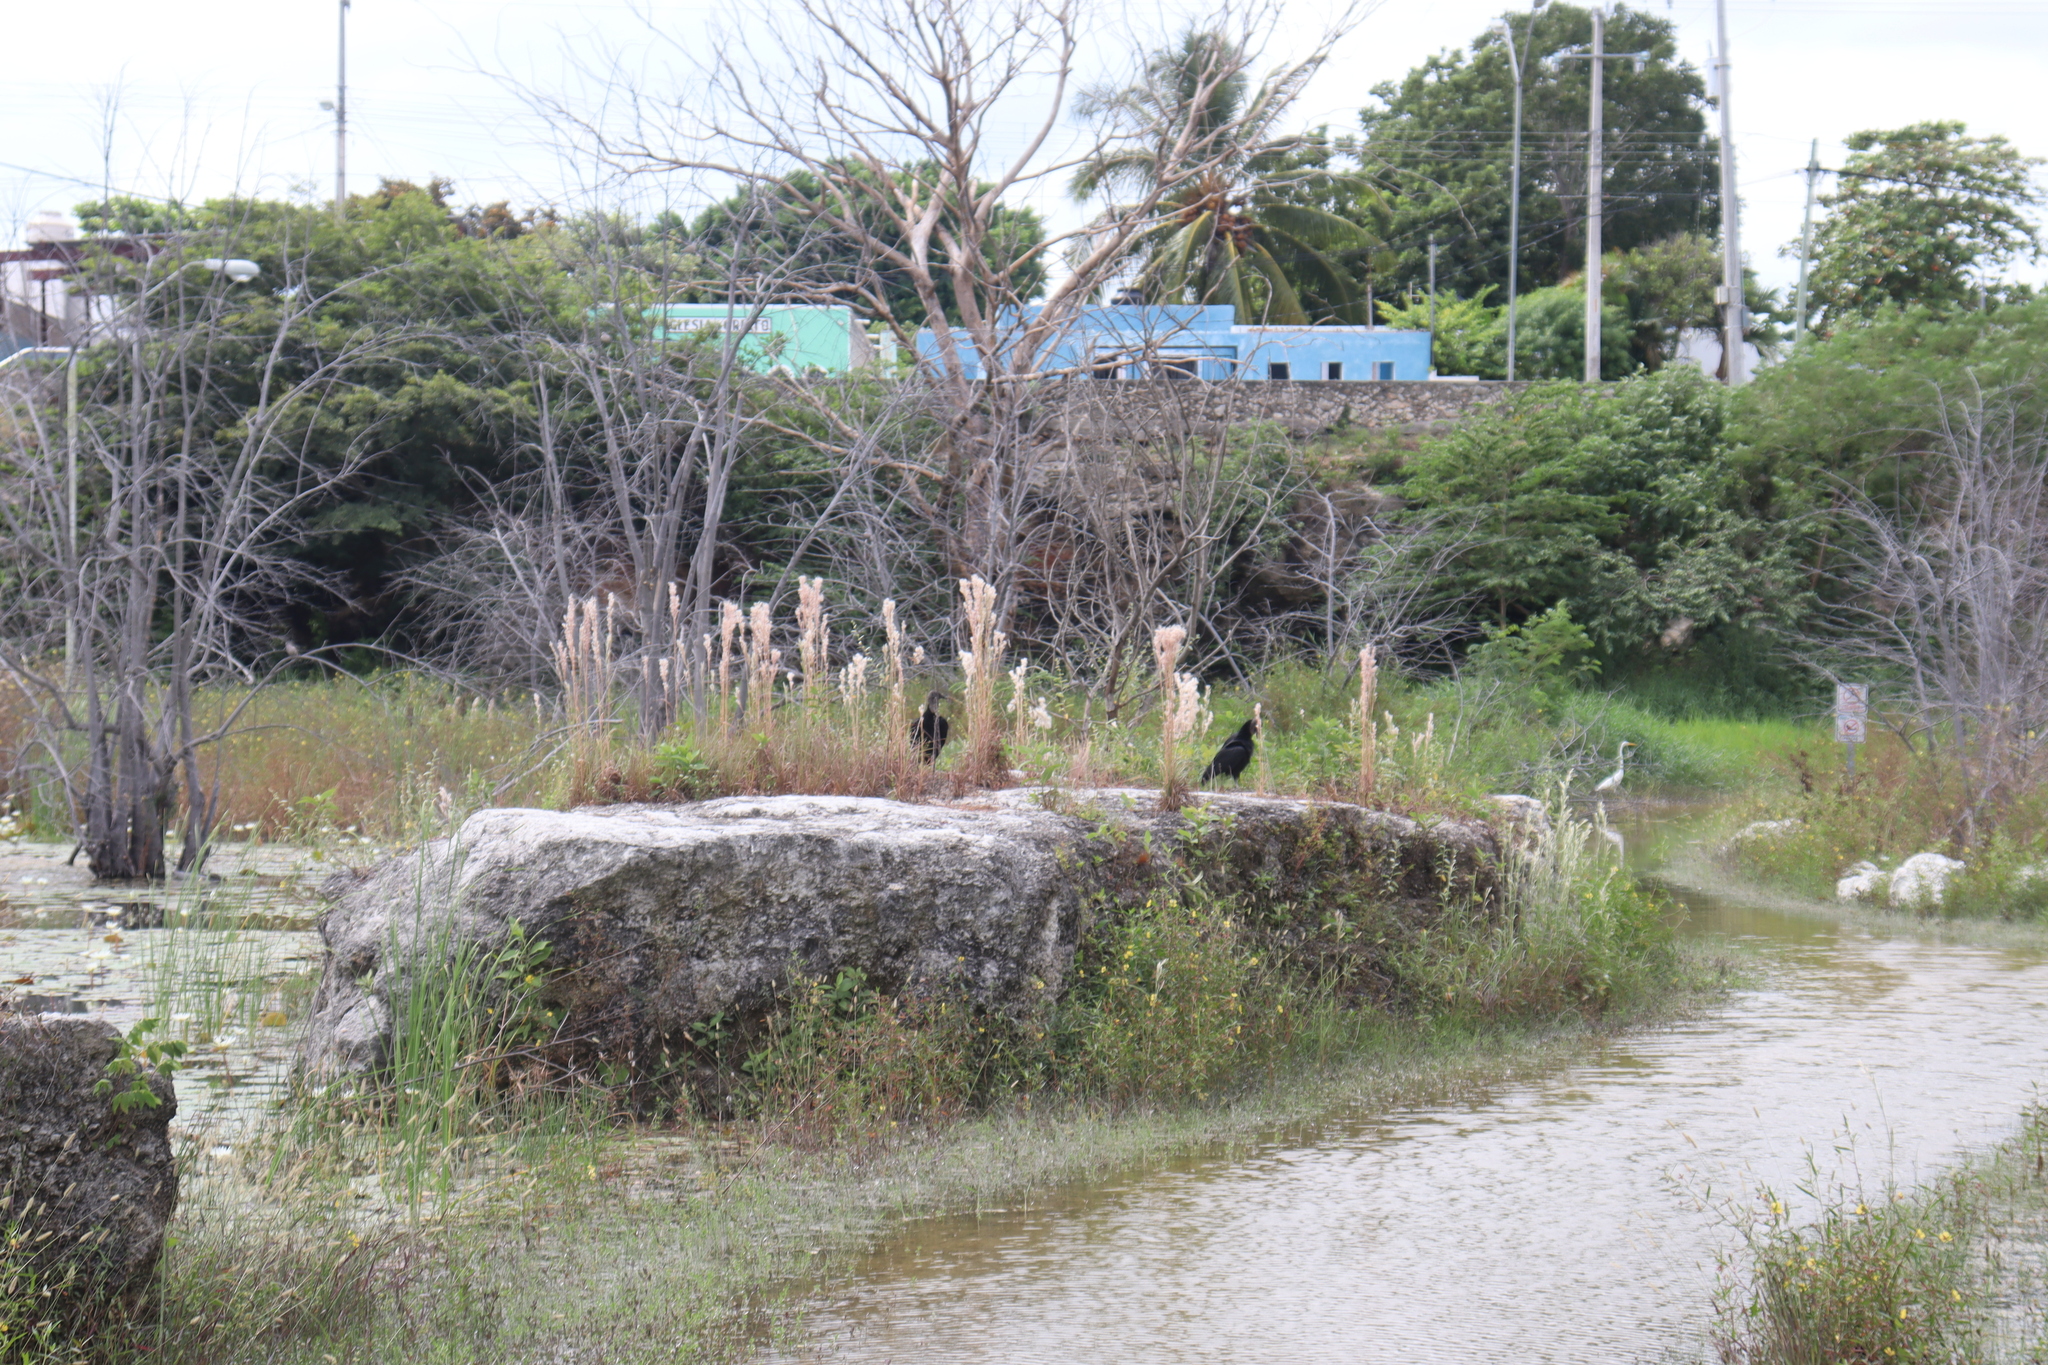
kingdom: Animalia
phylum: Chordata
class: Aves
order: Accipitriformes
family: Cathartidae
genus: Coragyps
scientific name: Coragyps atratus
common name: Black vulture
